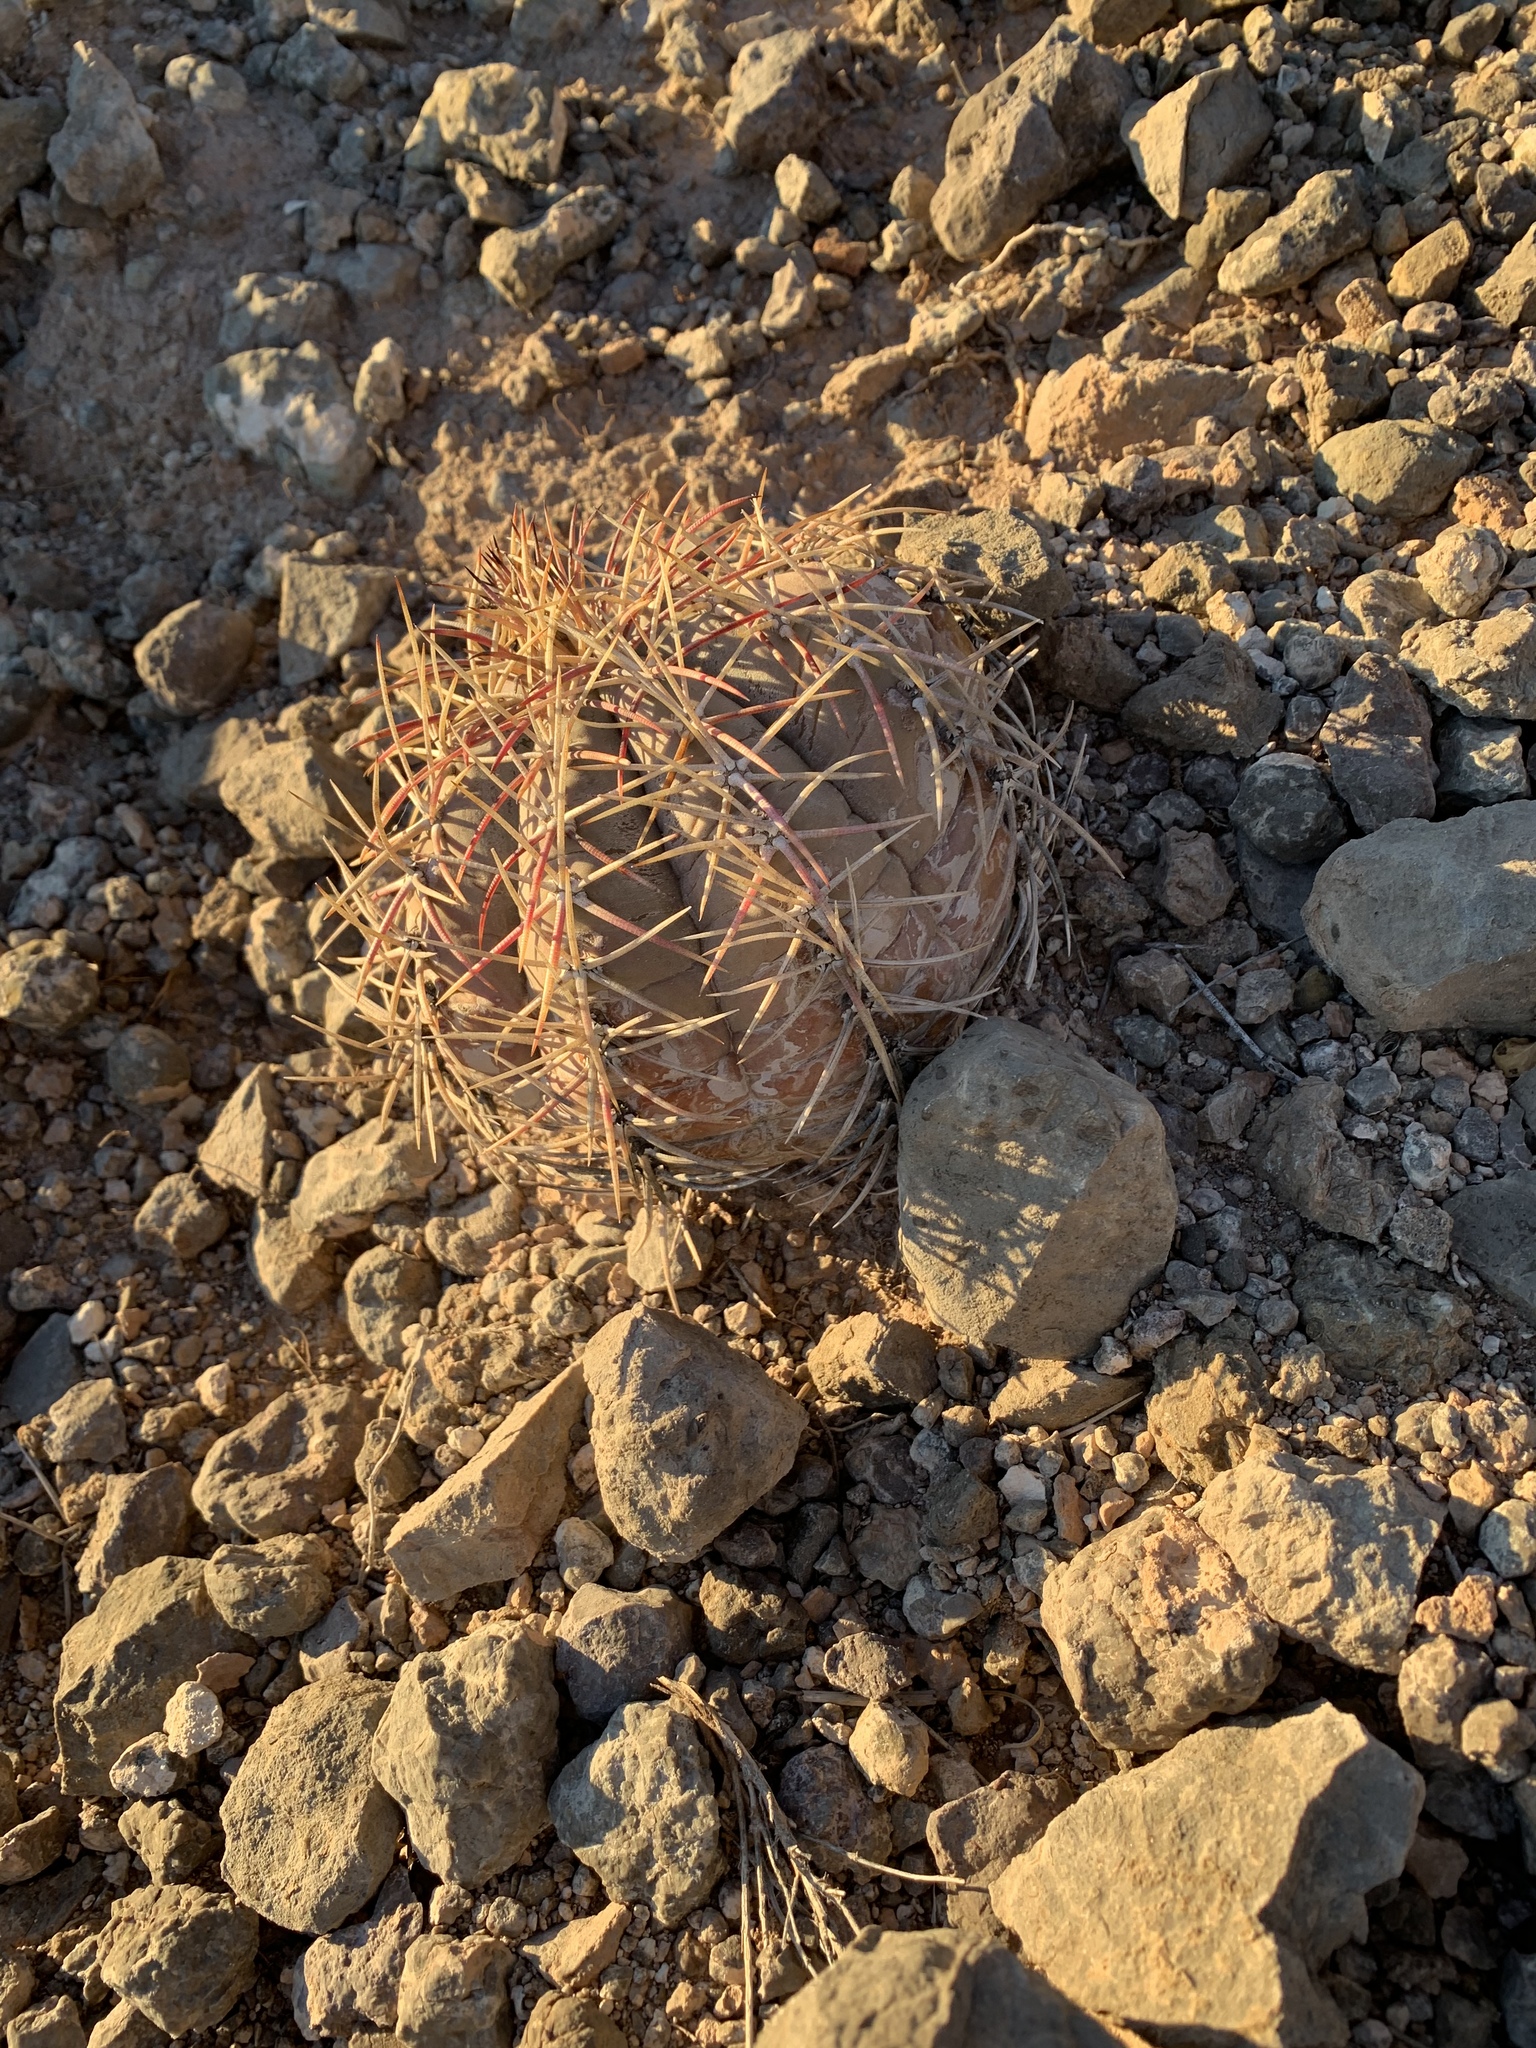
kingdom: Plantae
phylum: Tracheophyta
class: Magnoliopsida
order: Caryophyllales
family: Cactaceae
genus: Echinocactus
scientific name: Echinocactus horizonthalonius
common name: Devilshead
